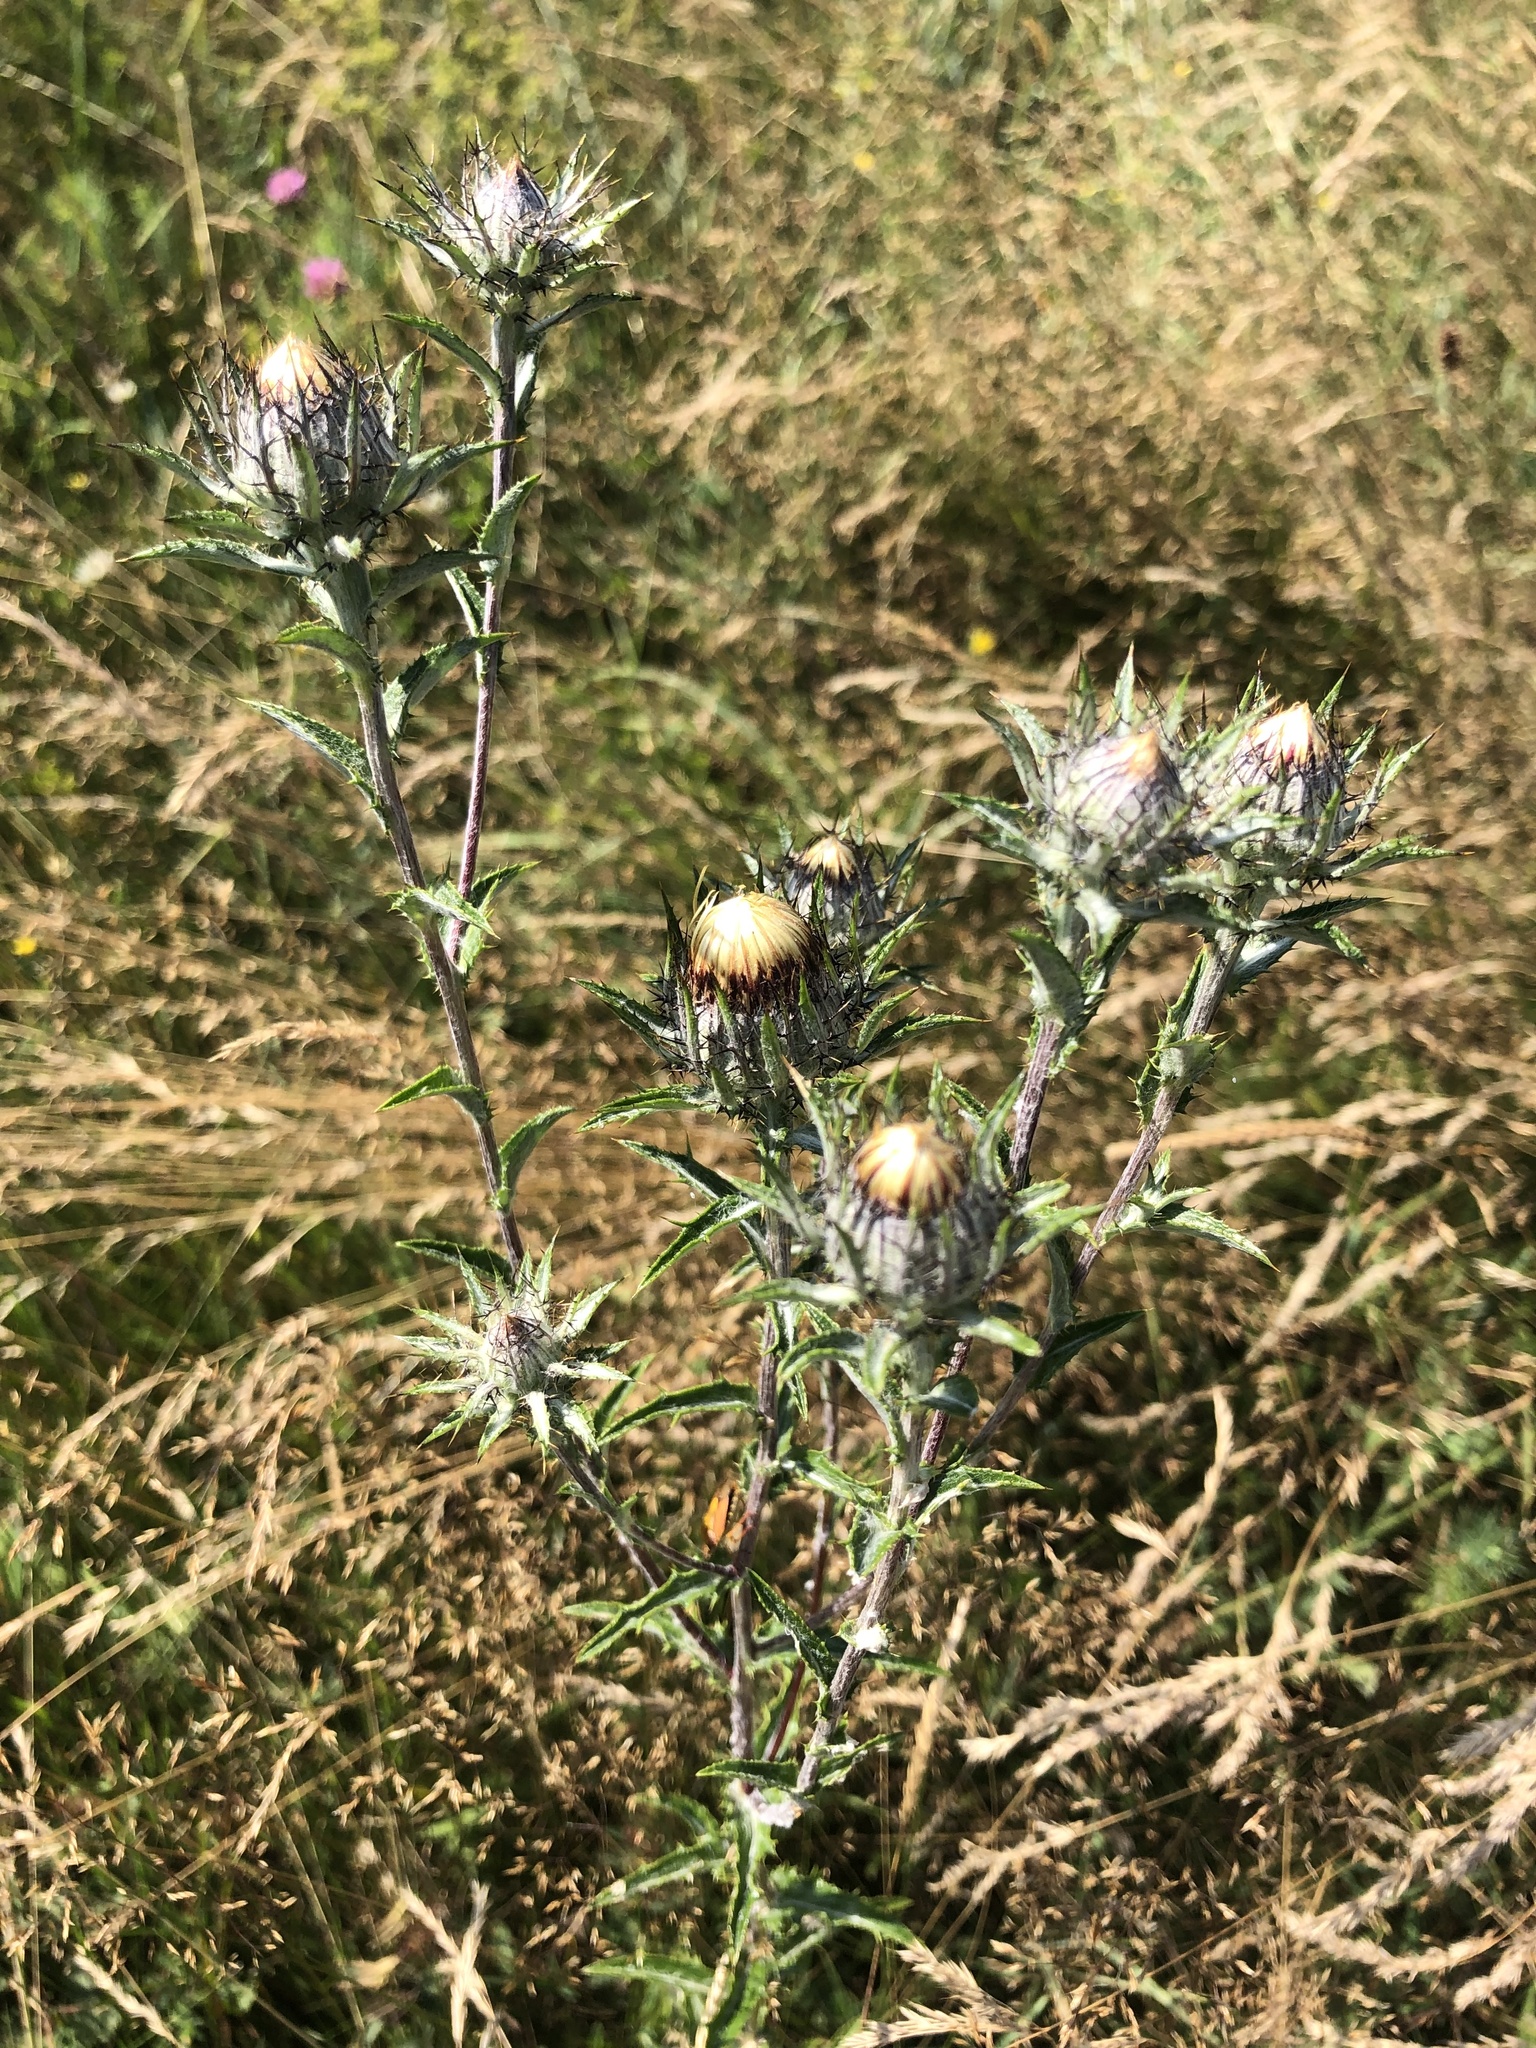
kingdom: Plantae
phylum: Tracheophyta
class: Magnoliopsida
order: Asterales
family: Asteraceae
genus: Carlina
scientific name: Carlina vulgaris
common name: Carline thistle
